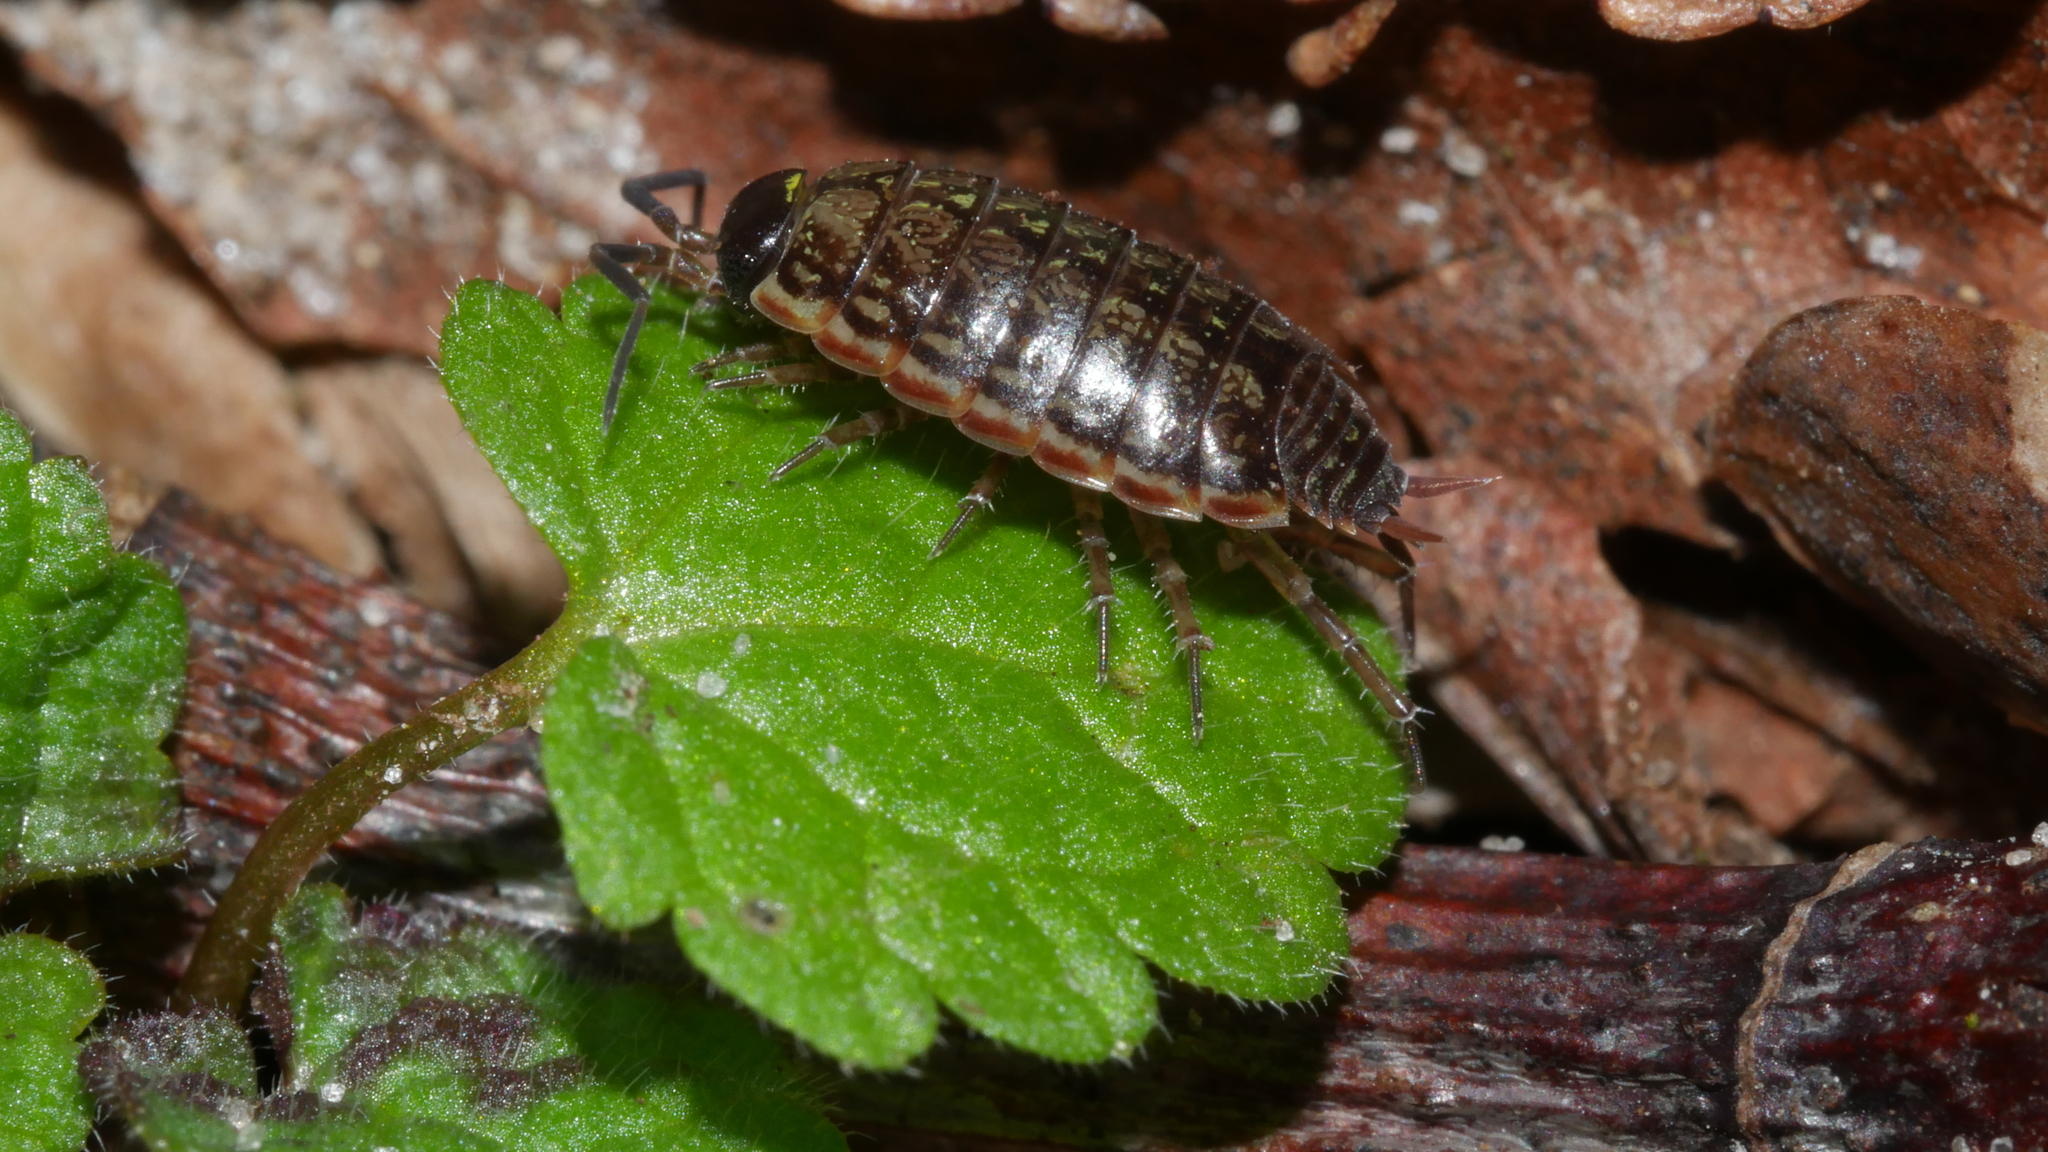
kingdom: Animalia
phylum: Arthropoda
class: Malacostraca
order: Isopoda
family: Philosciidae
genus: Philoscia
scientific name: Philoscia muscorum
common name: Common striped woodlouse
